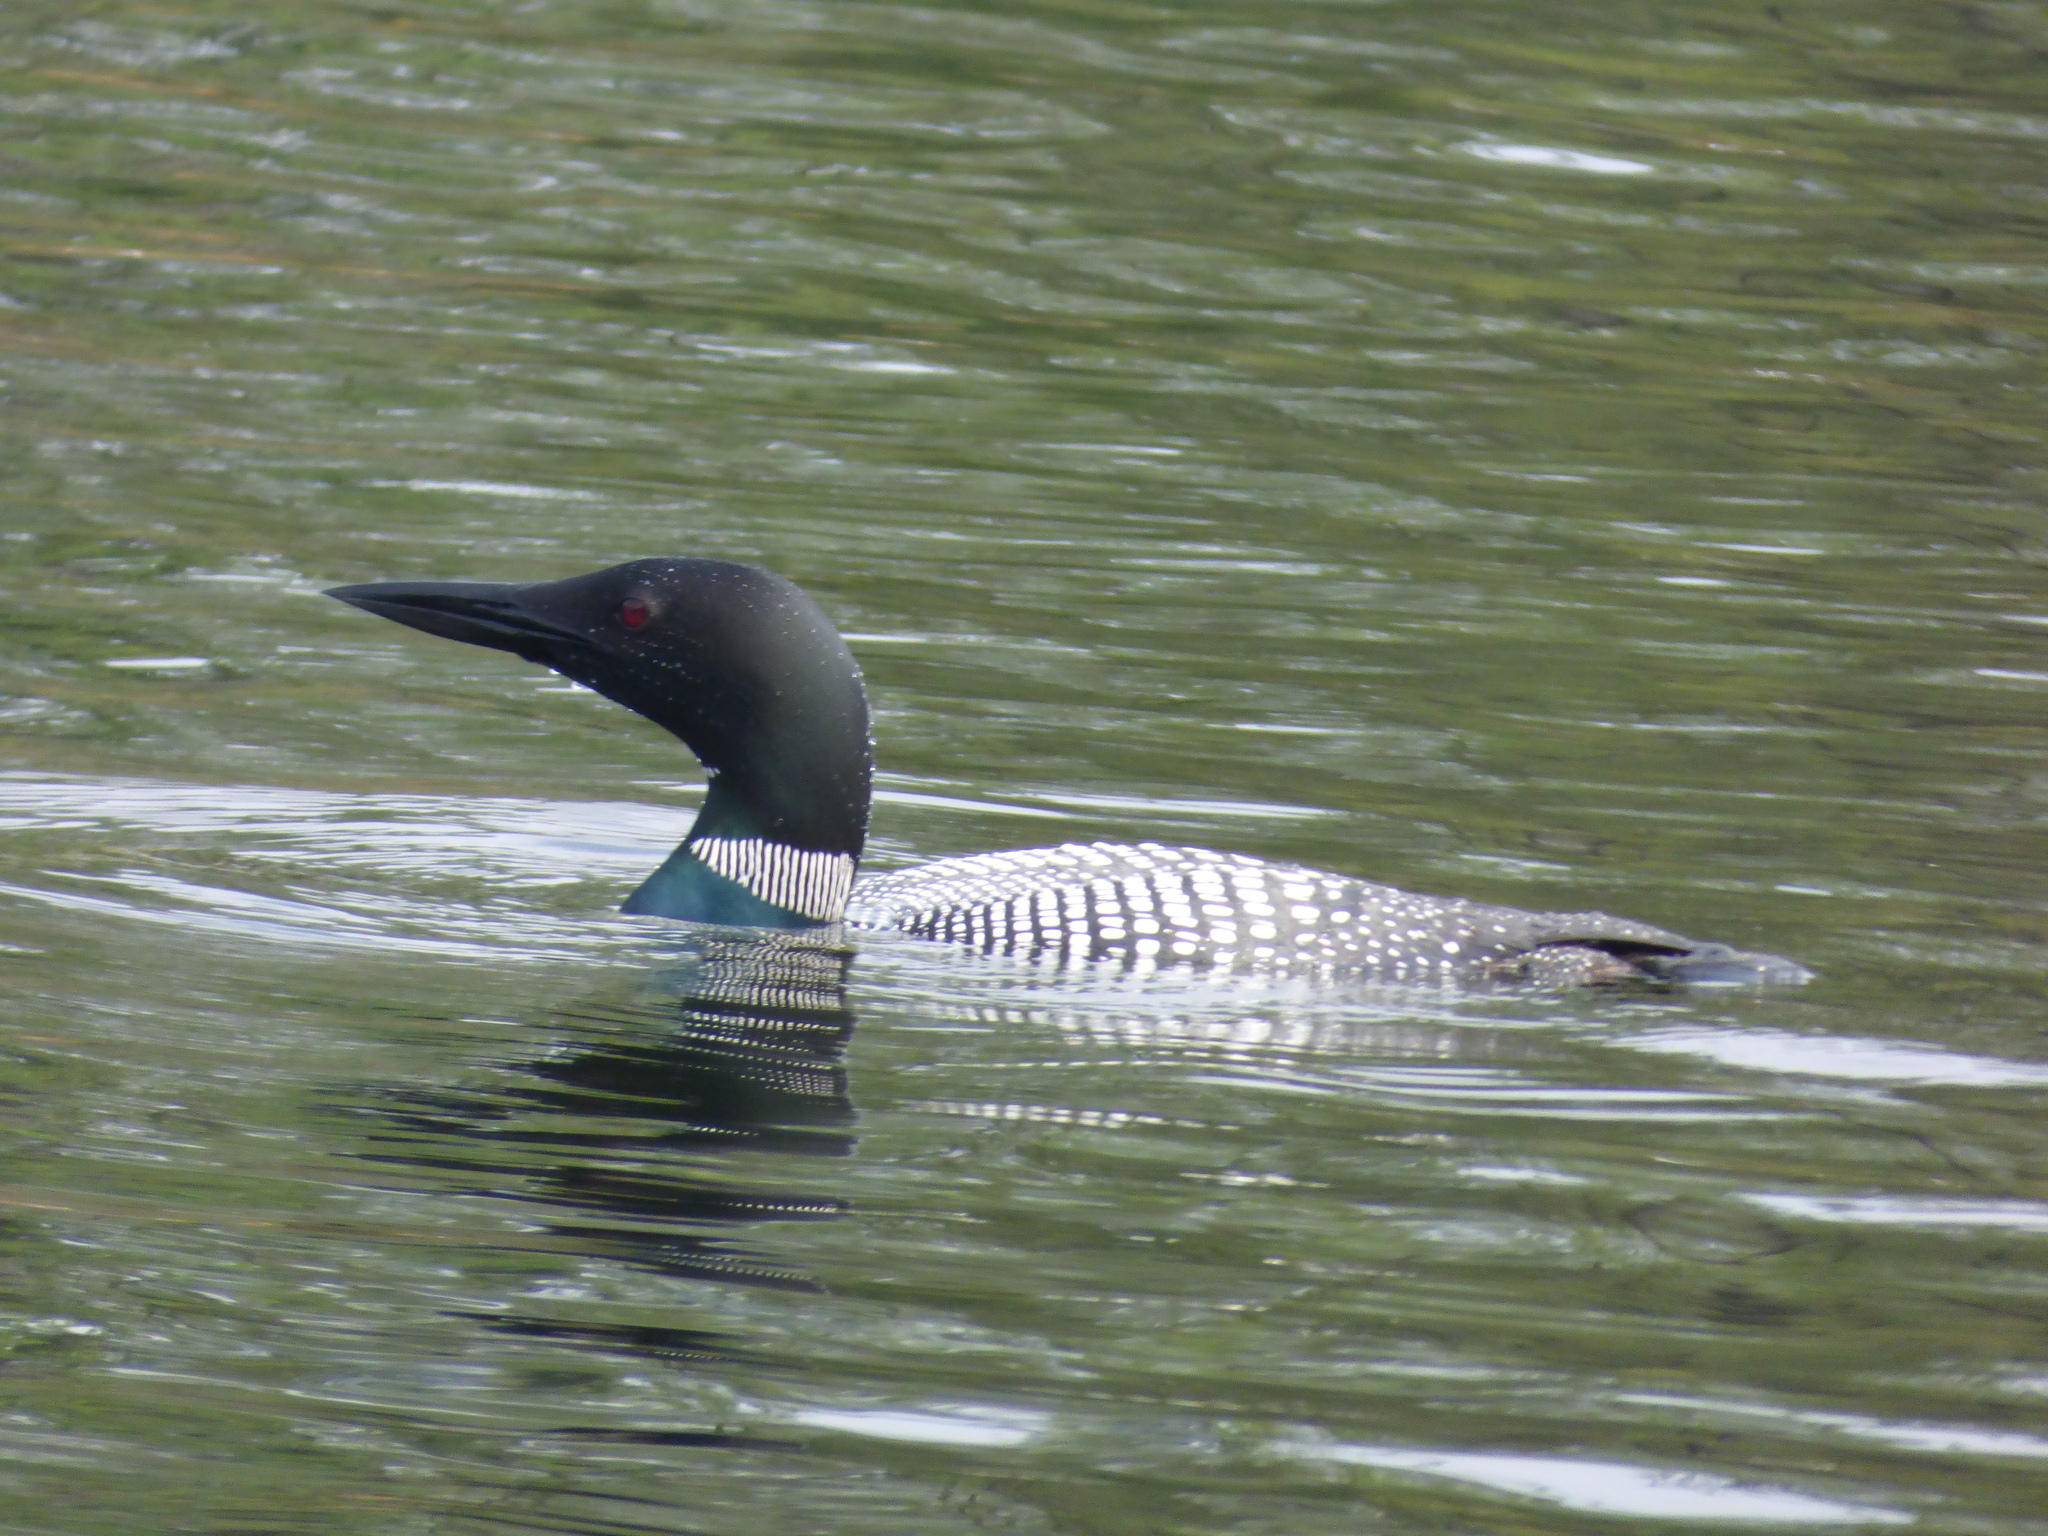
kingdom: Animalia
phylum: Chordata
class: Aves
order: Gaviiformes
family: Gaviidae
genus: Gavia
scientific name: Gavia immer
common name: Common loon
